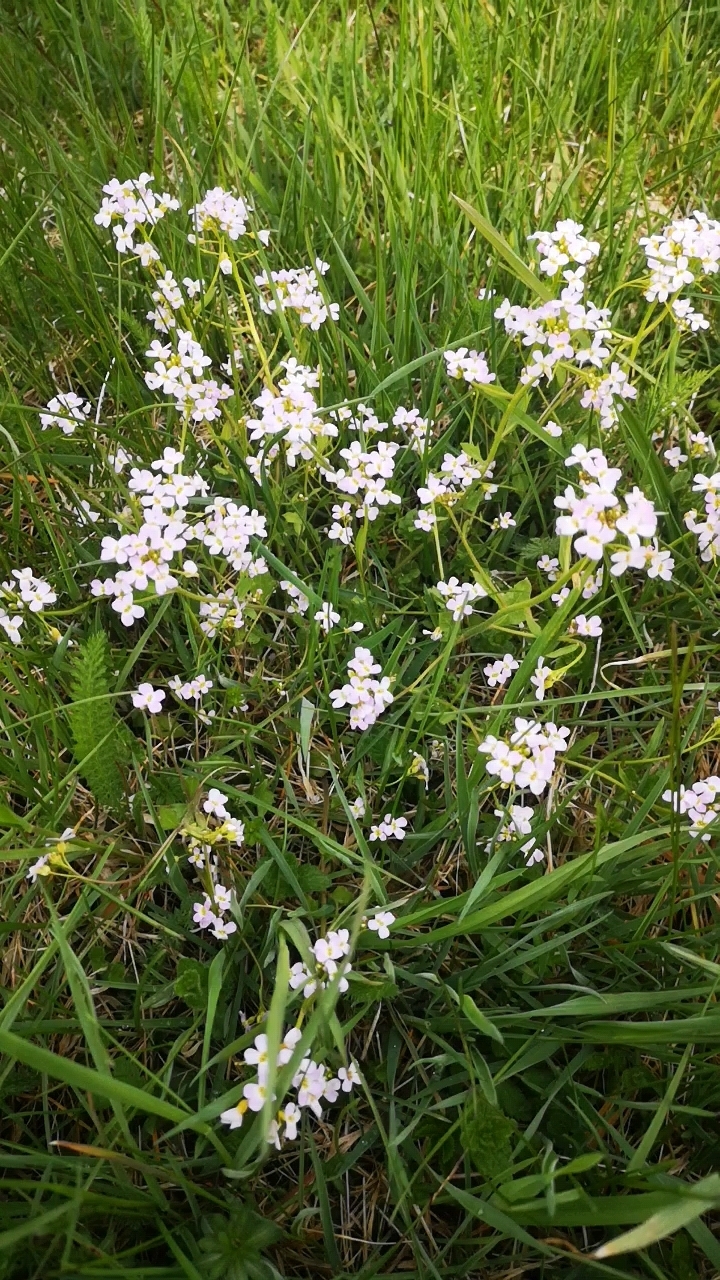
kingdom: Plantae
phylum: Tracheophyta
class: Magnoliopsida
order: Brassicales
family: Brassicaceae
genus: Arabidopsis
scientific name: Arabidopsis halleri
